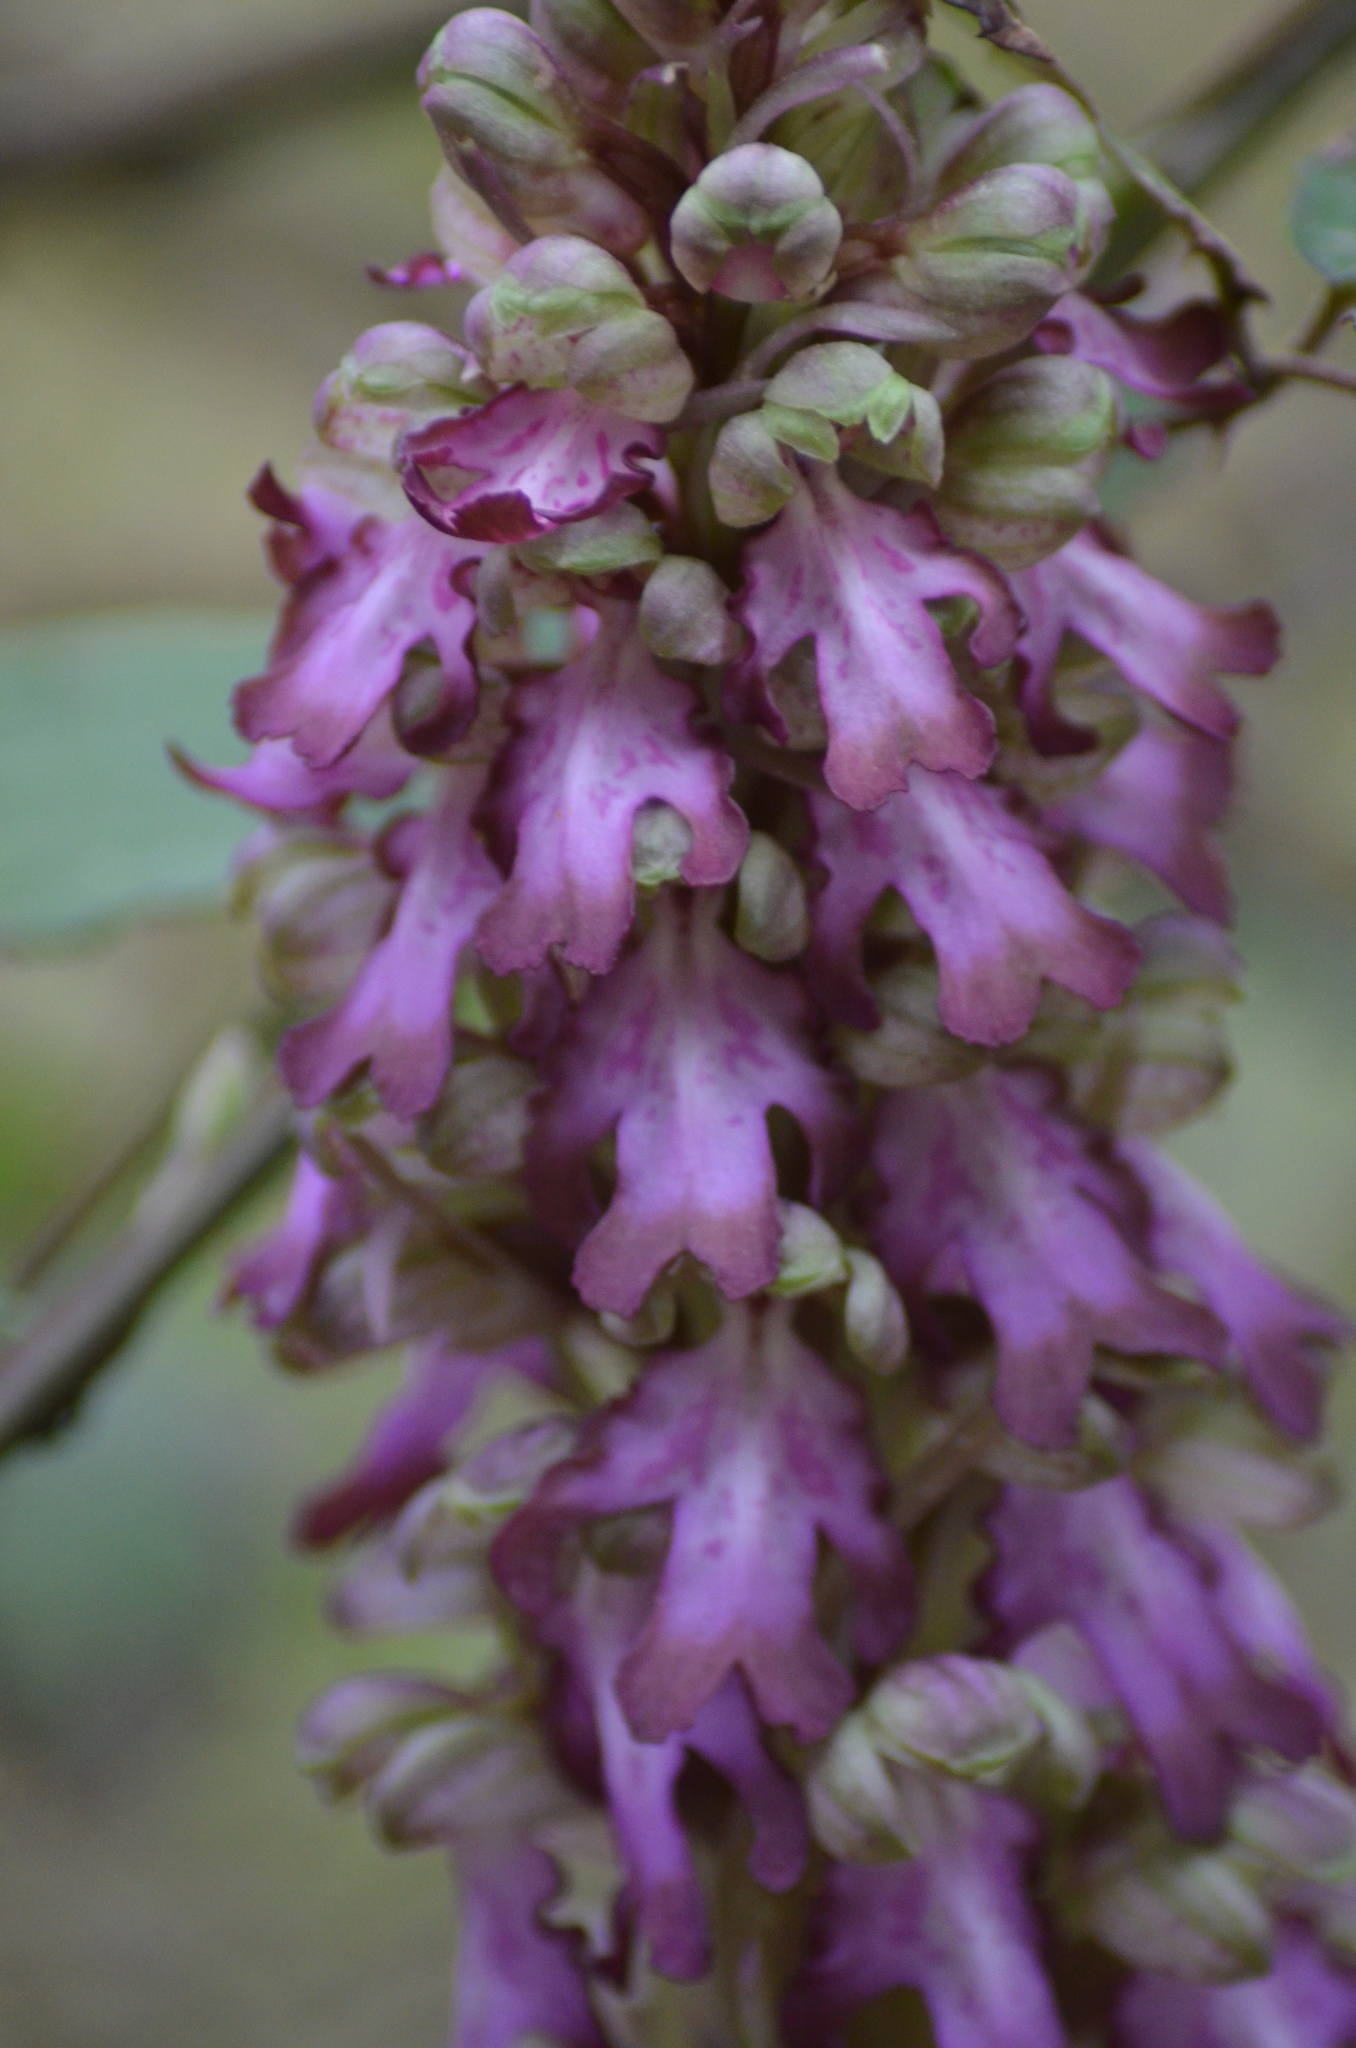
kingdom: Plantae
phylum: Tracheophyta
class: Liliopsida
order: Asparagales
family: Orchidaceae
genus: Himantoglossum
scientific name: Himantoglossum robertianum
